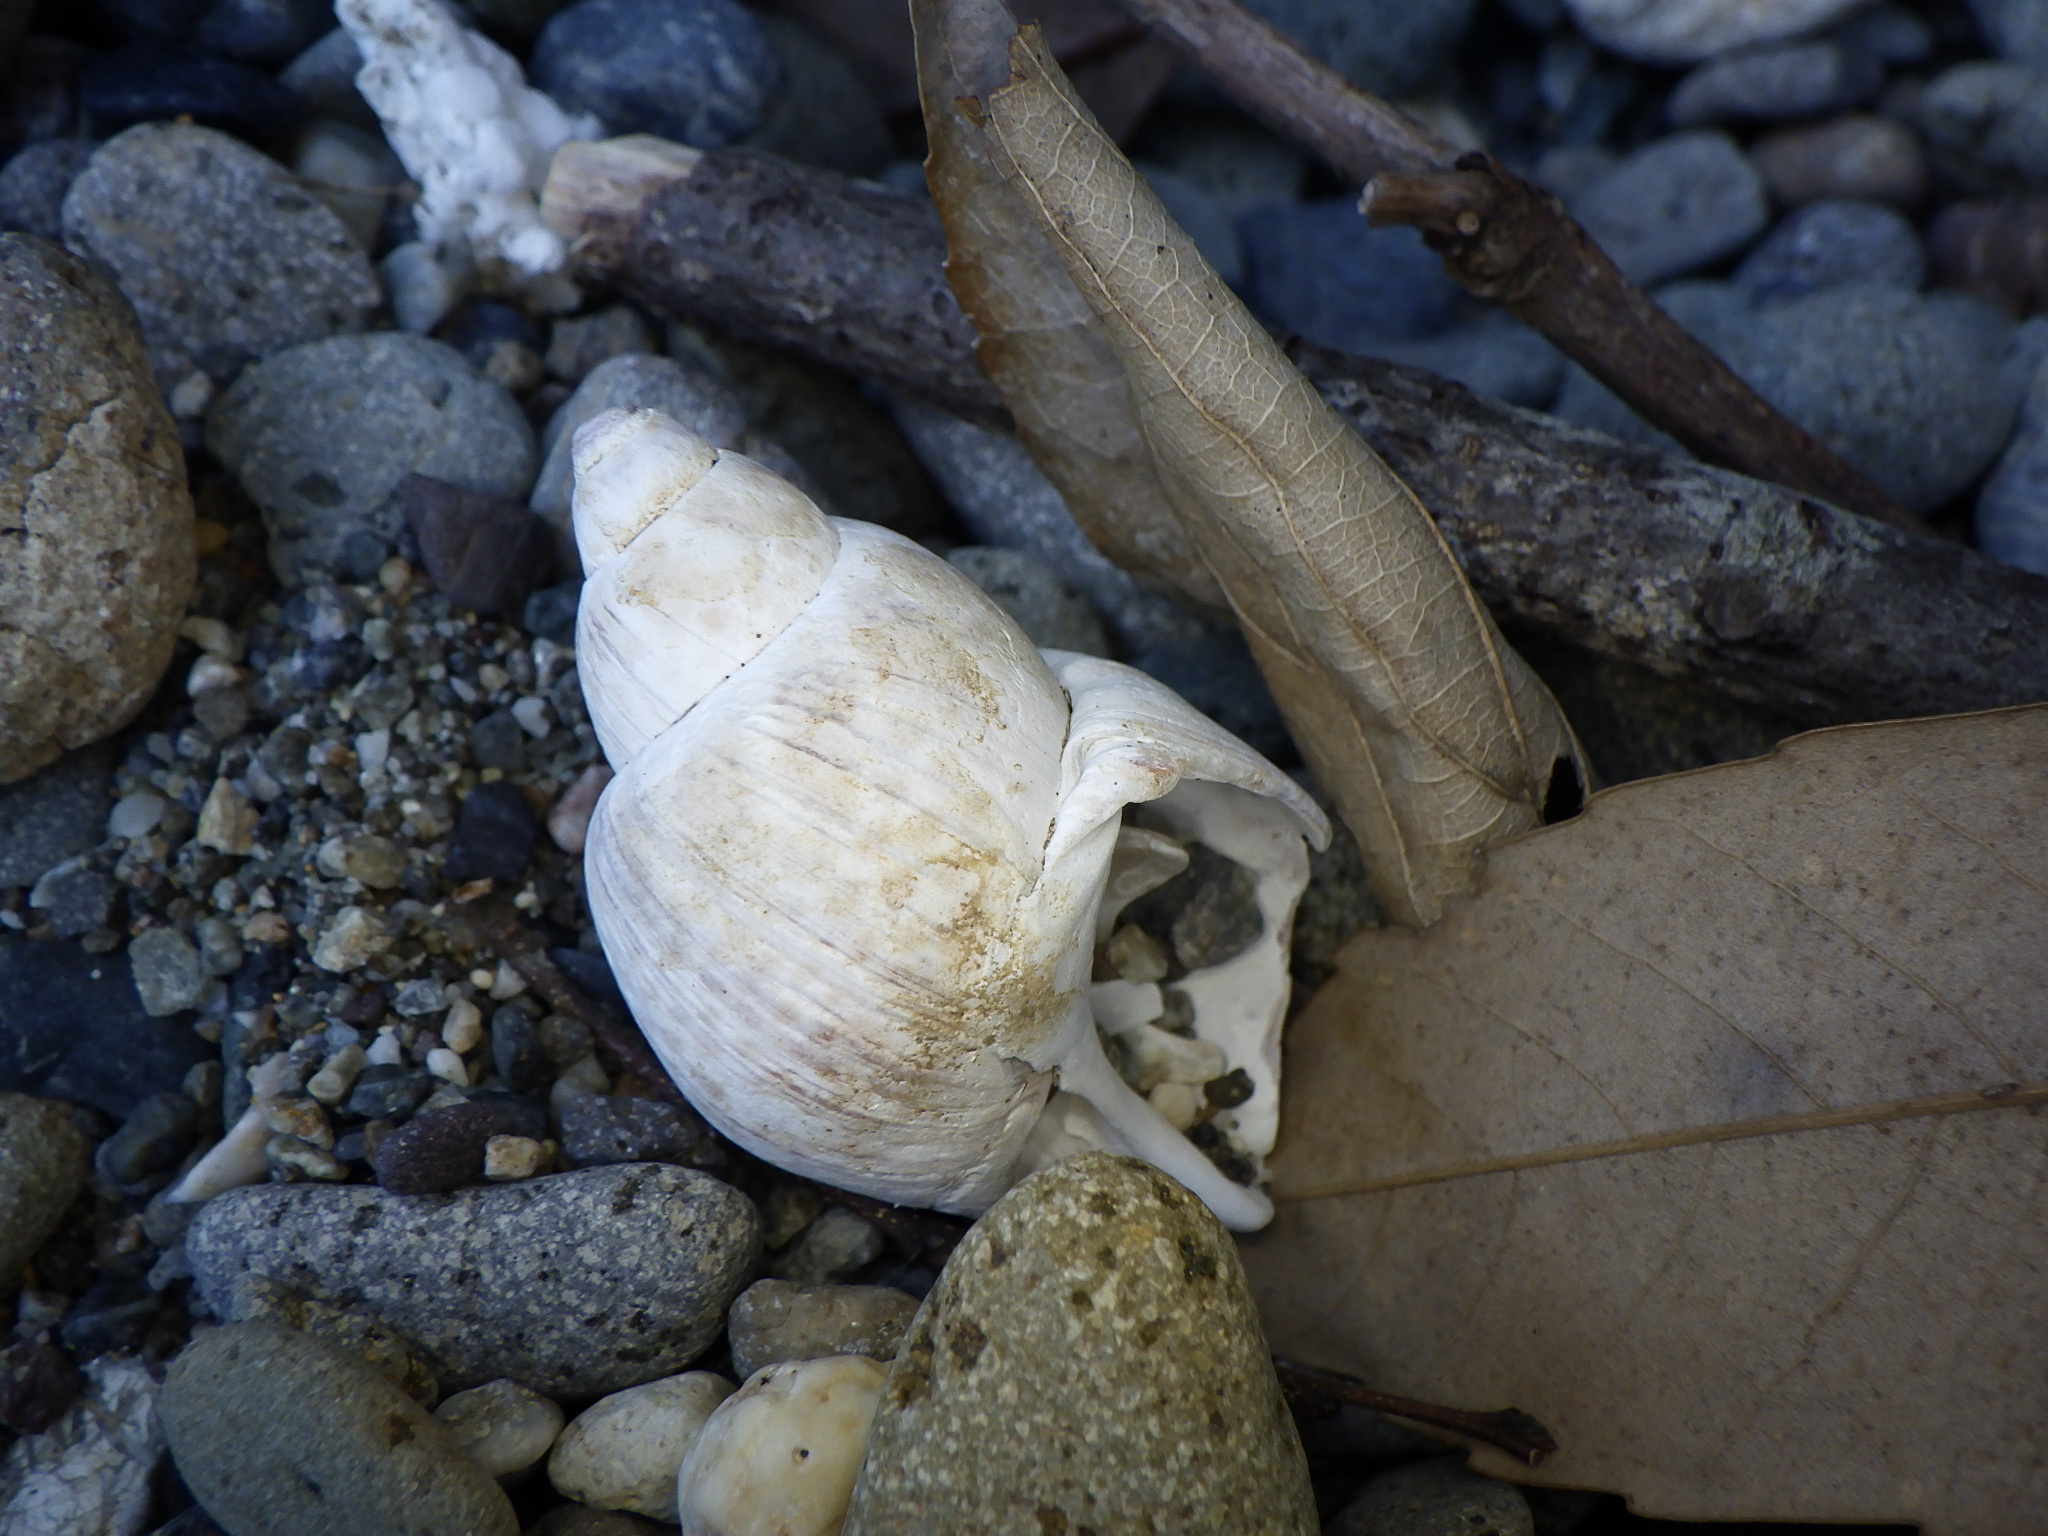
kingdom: Animalia
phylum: Mollusca
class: Gastropoda
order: Neogastropoda
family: Babyloniidae
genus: Babylonia
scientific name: Babylonia japonica
